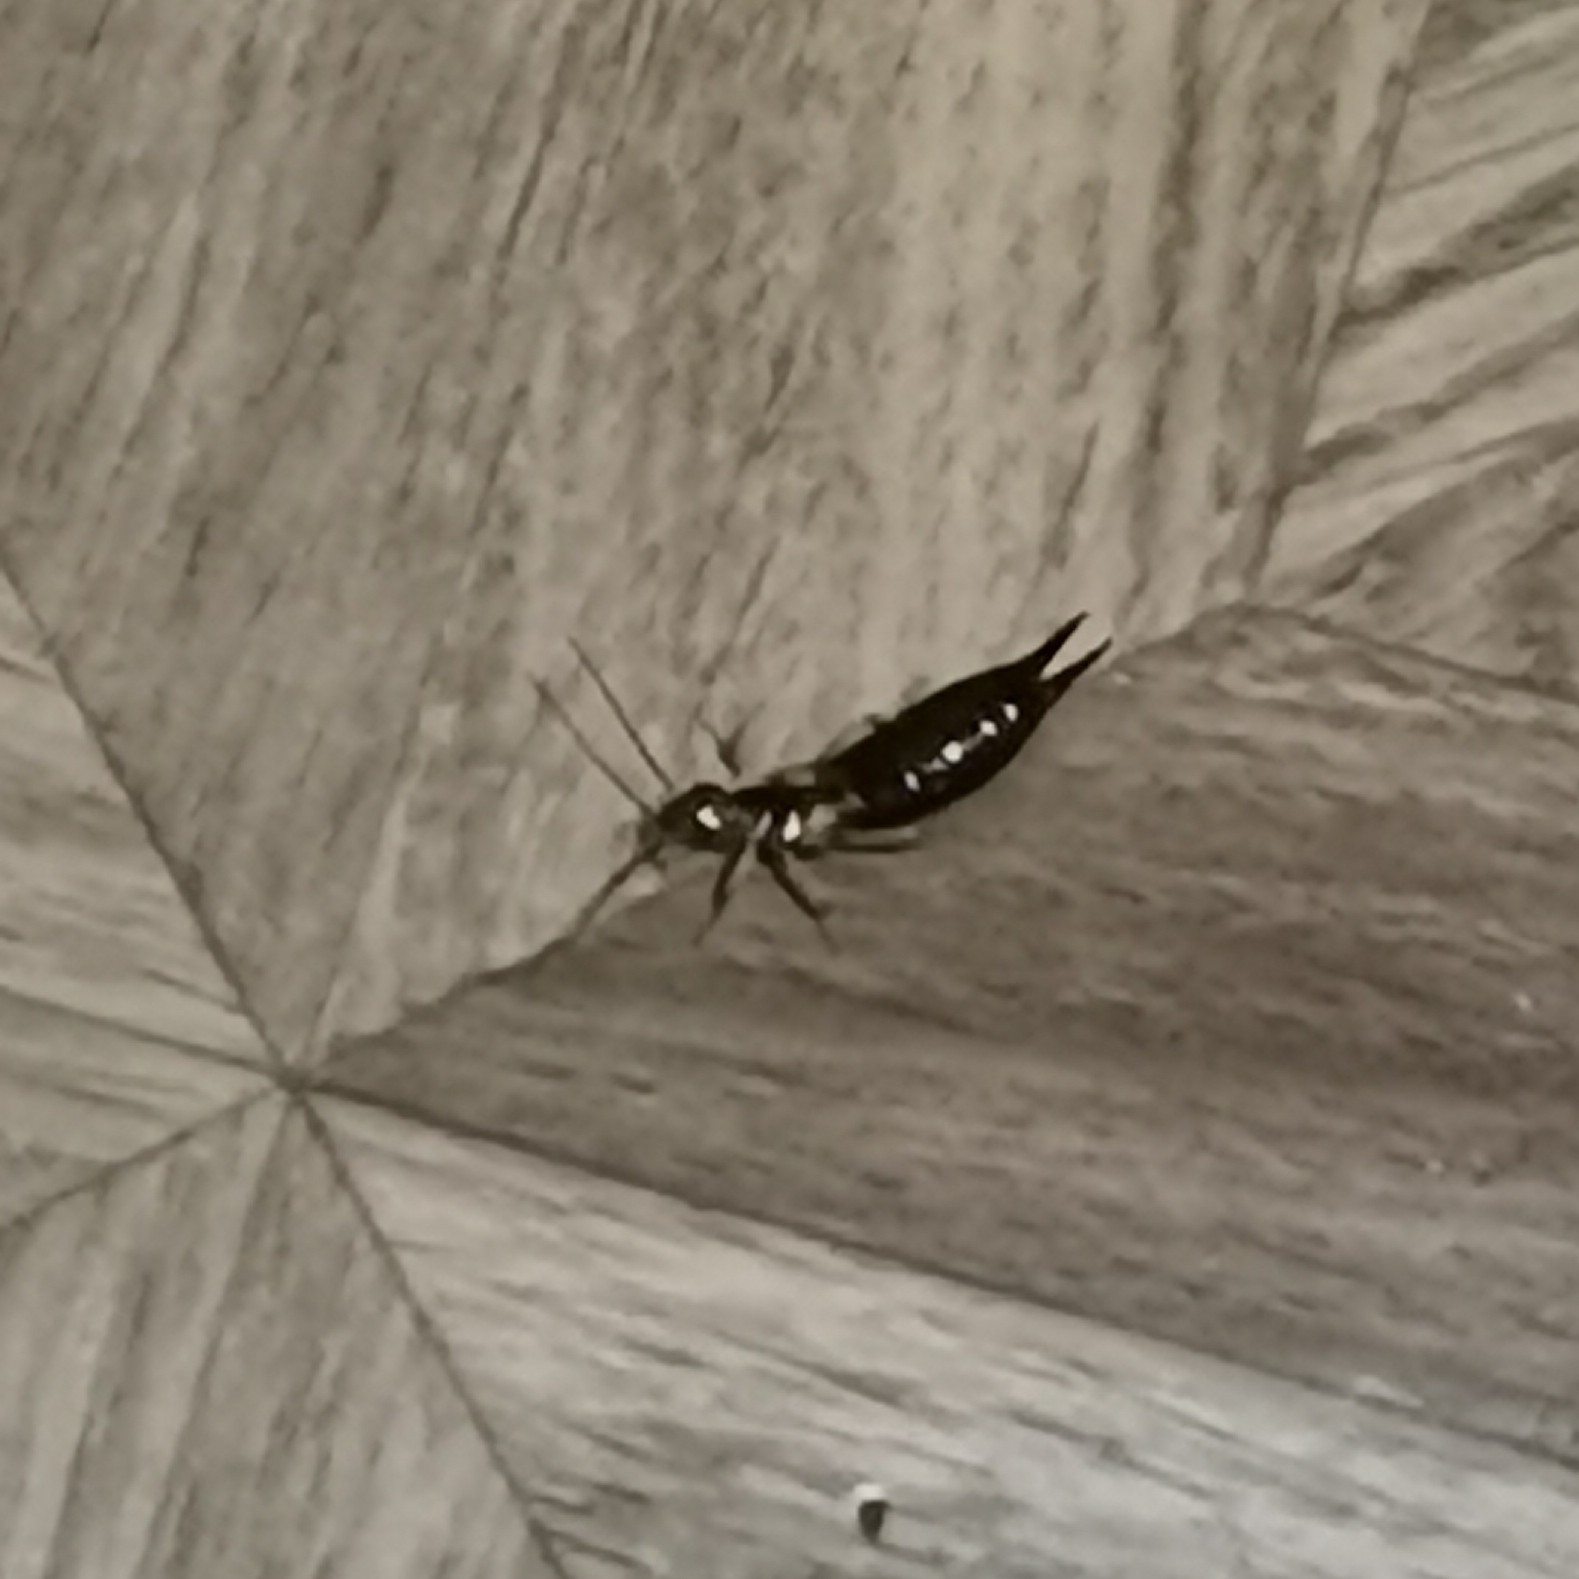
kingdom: Animalia
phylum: Arthropoda
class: Insecta
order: Dermaptera
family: Forficulidae
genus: Forficula
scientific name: Forficula
